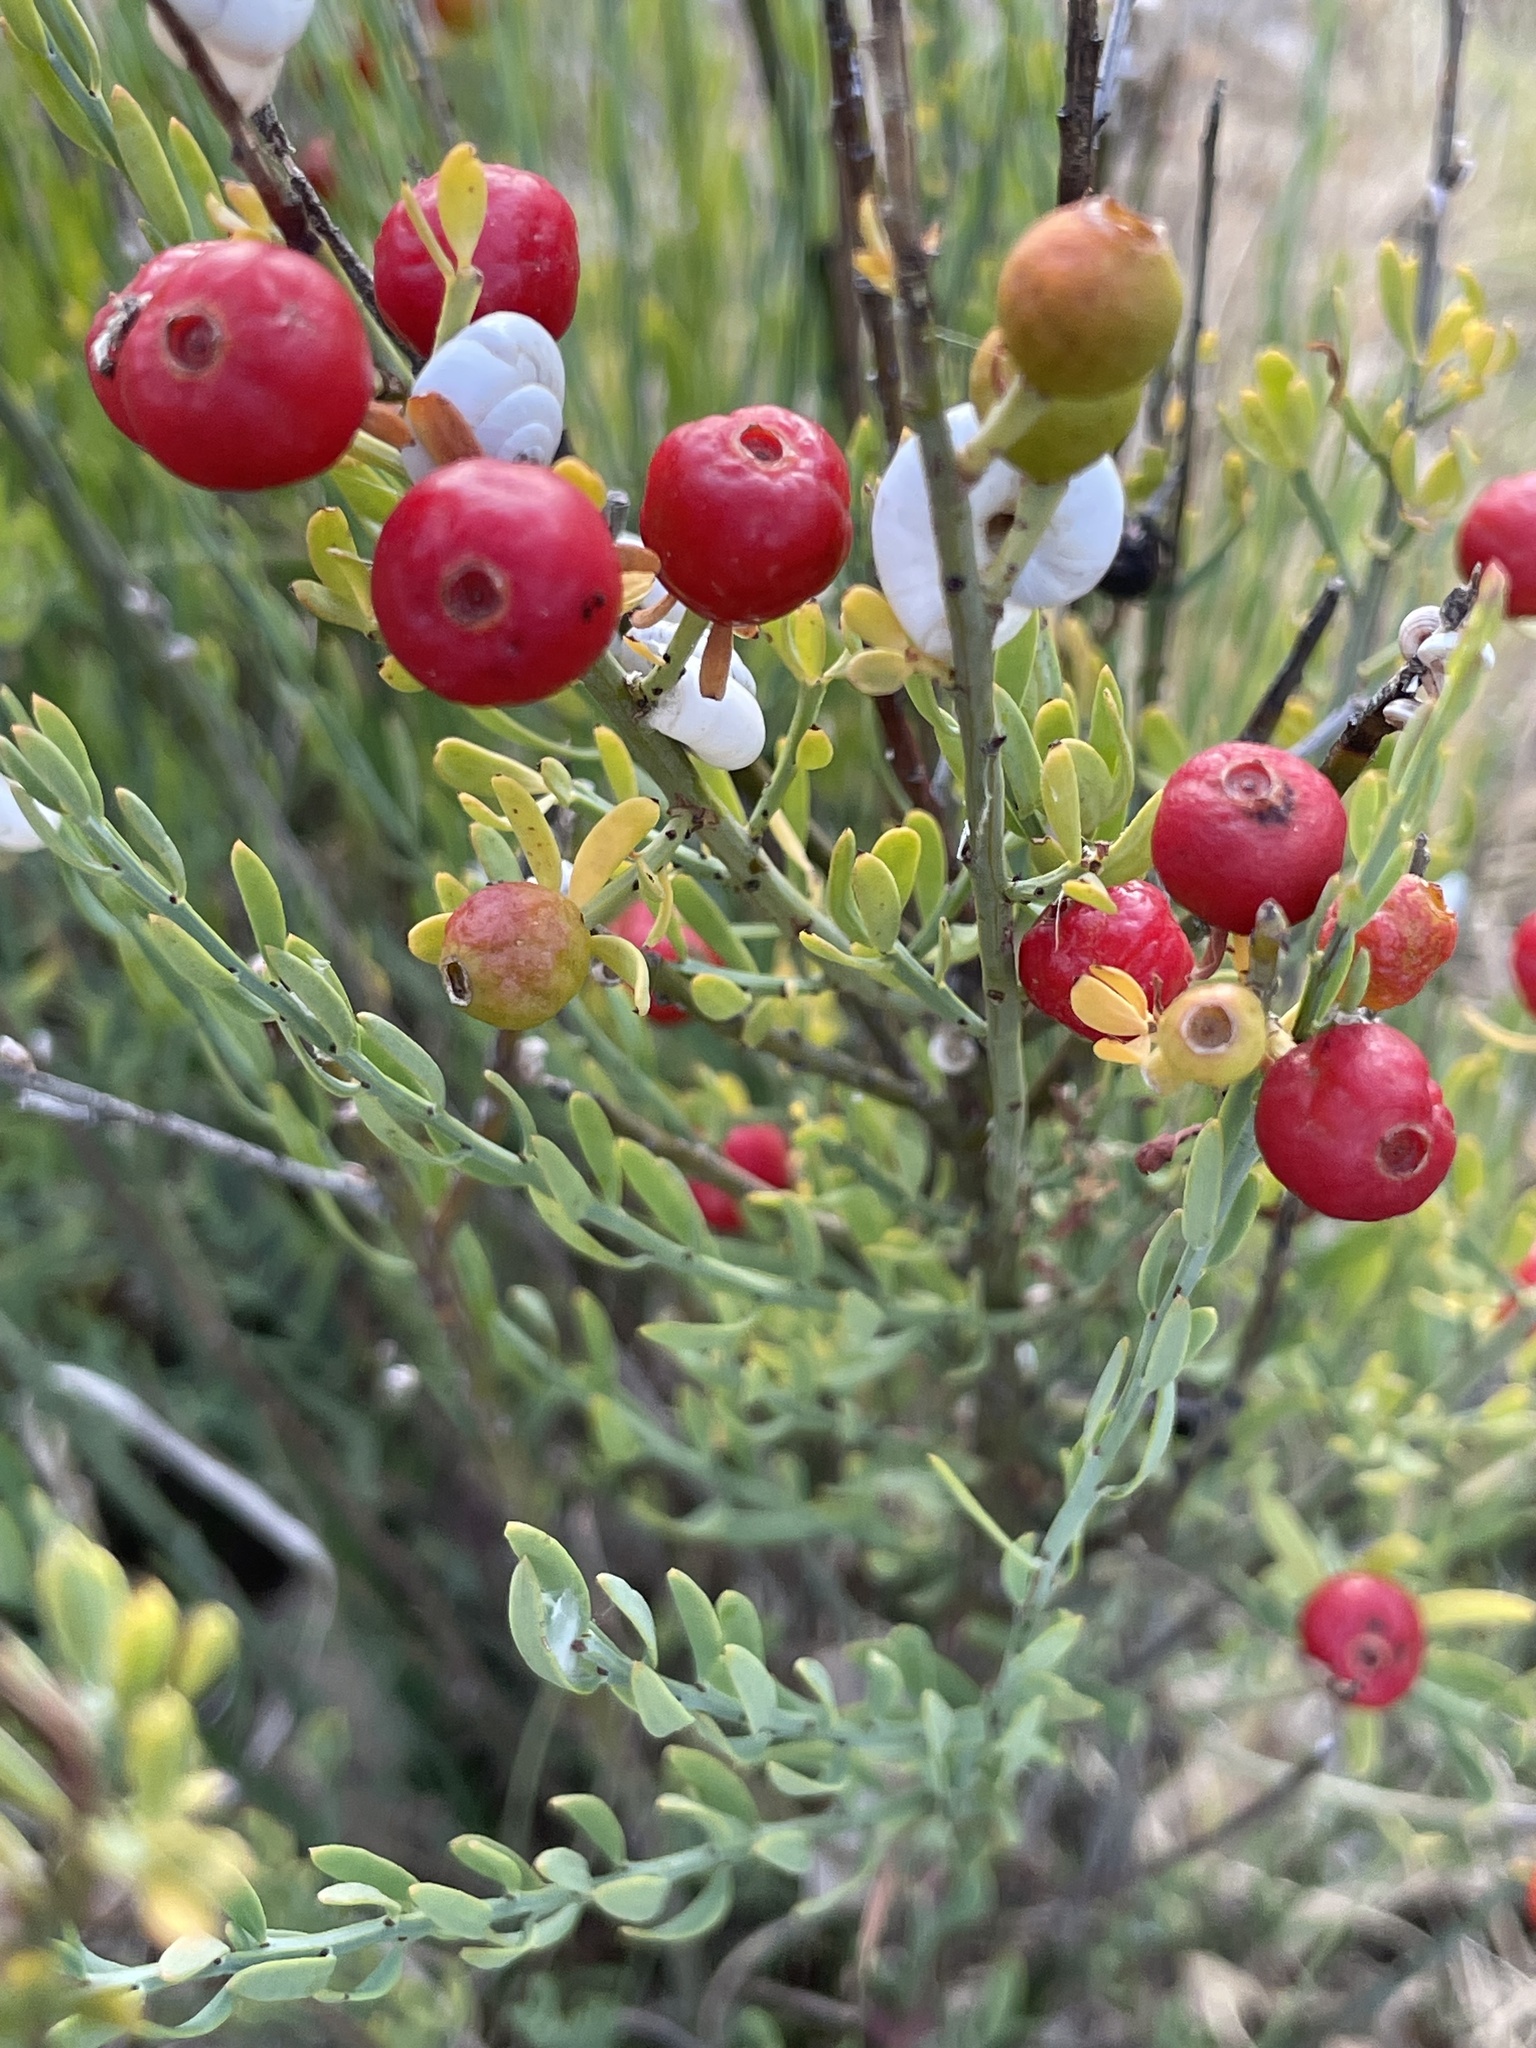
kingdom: Plantae
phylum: Tracheophyta
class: Magnoliopsida
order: Santalales
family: Santalaceae
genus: Osyris
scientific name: Osyris alba
